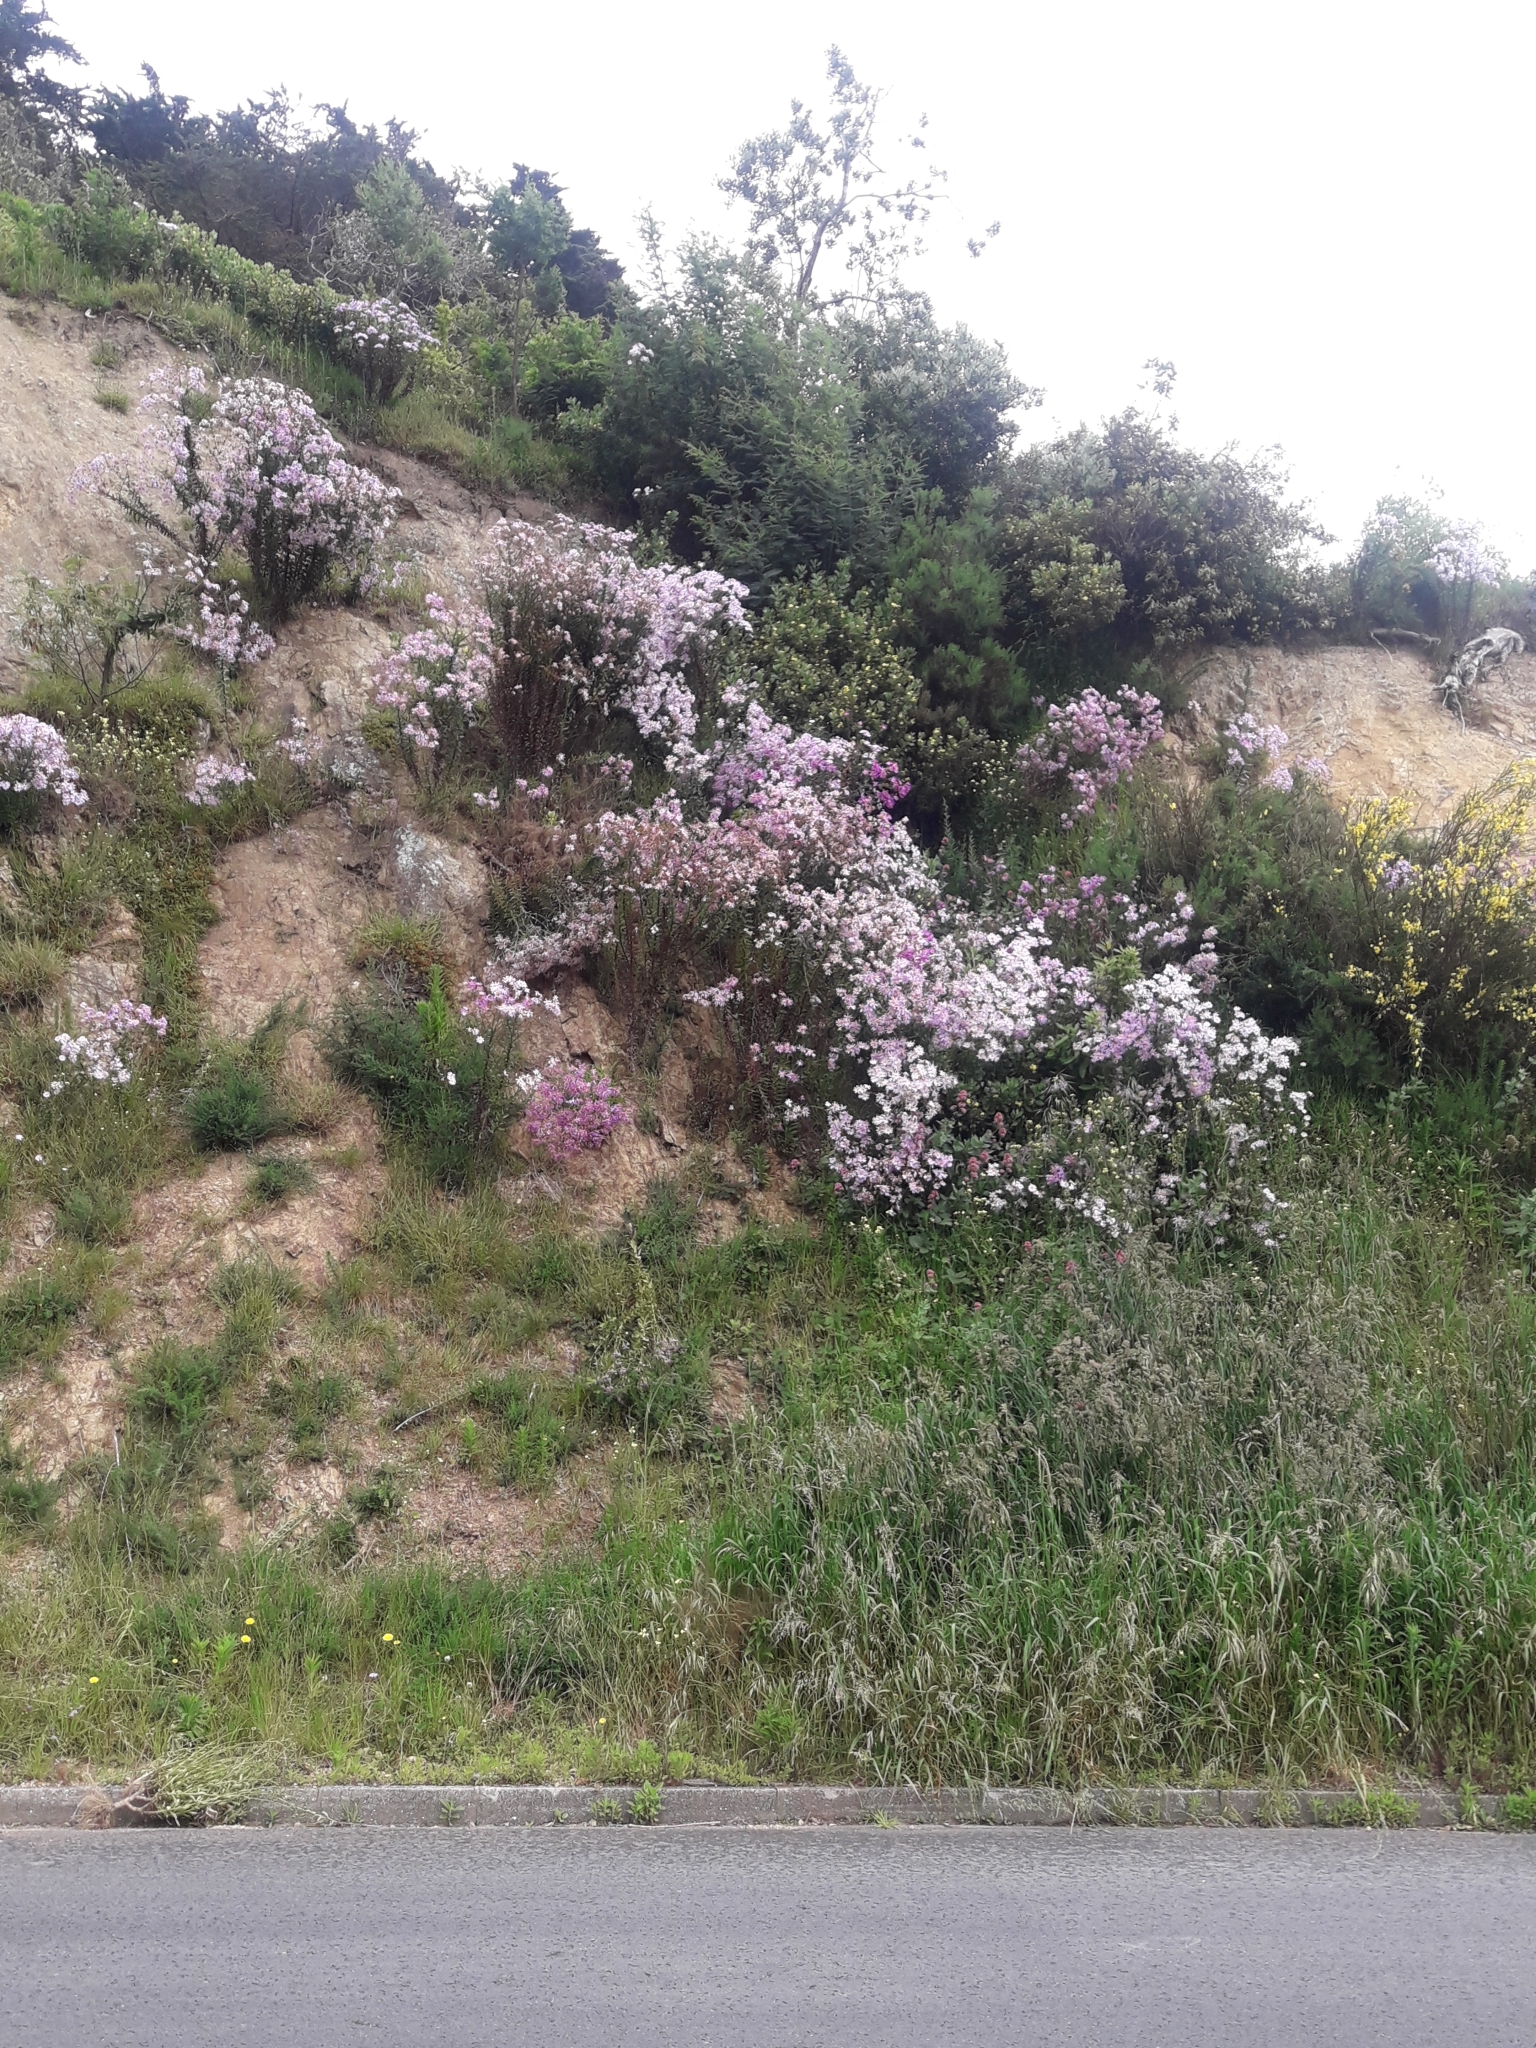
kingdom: Plantae
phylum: Tracheophyta
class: Magnoliopsida
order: Asterales
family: Asteraceae
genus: Senecio
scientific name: Senecio glastifolius
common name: Woad-leaved ragwort
